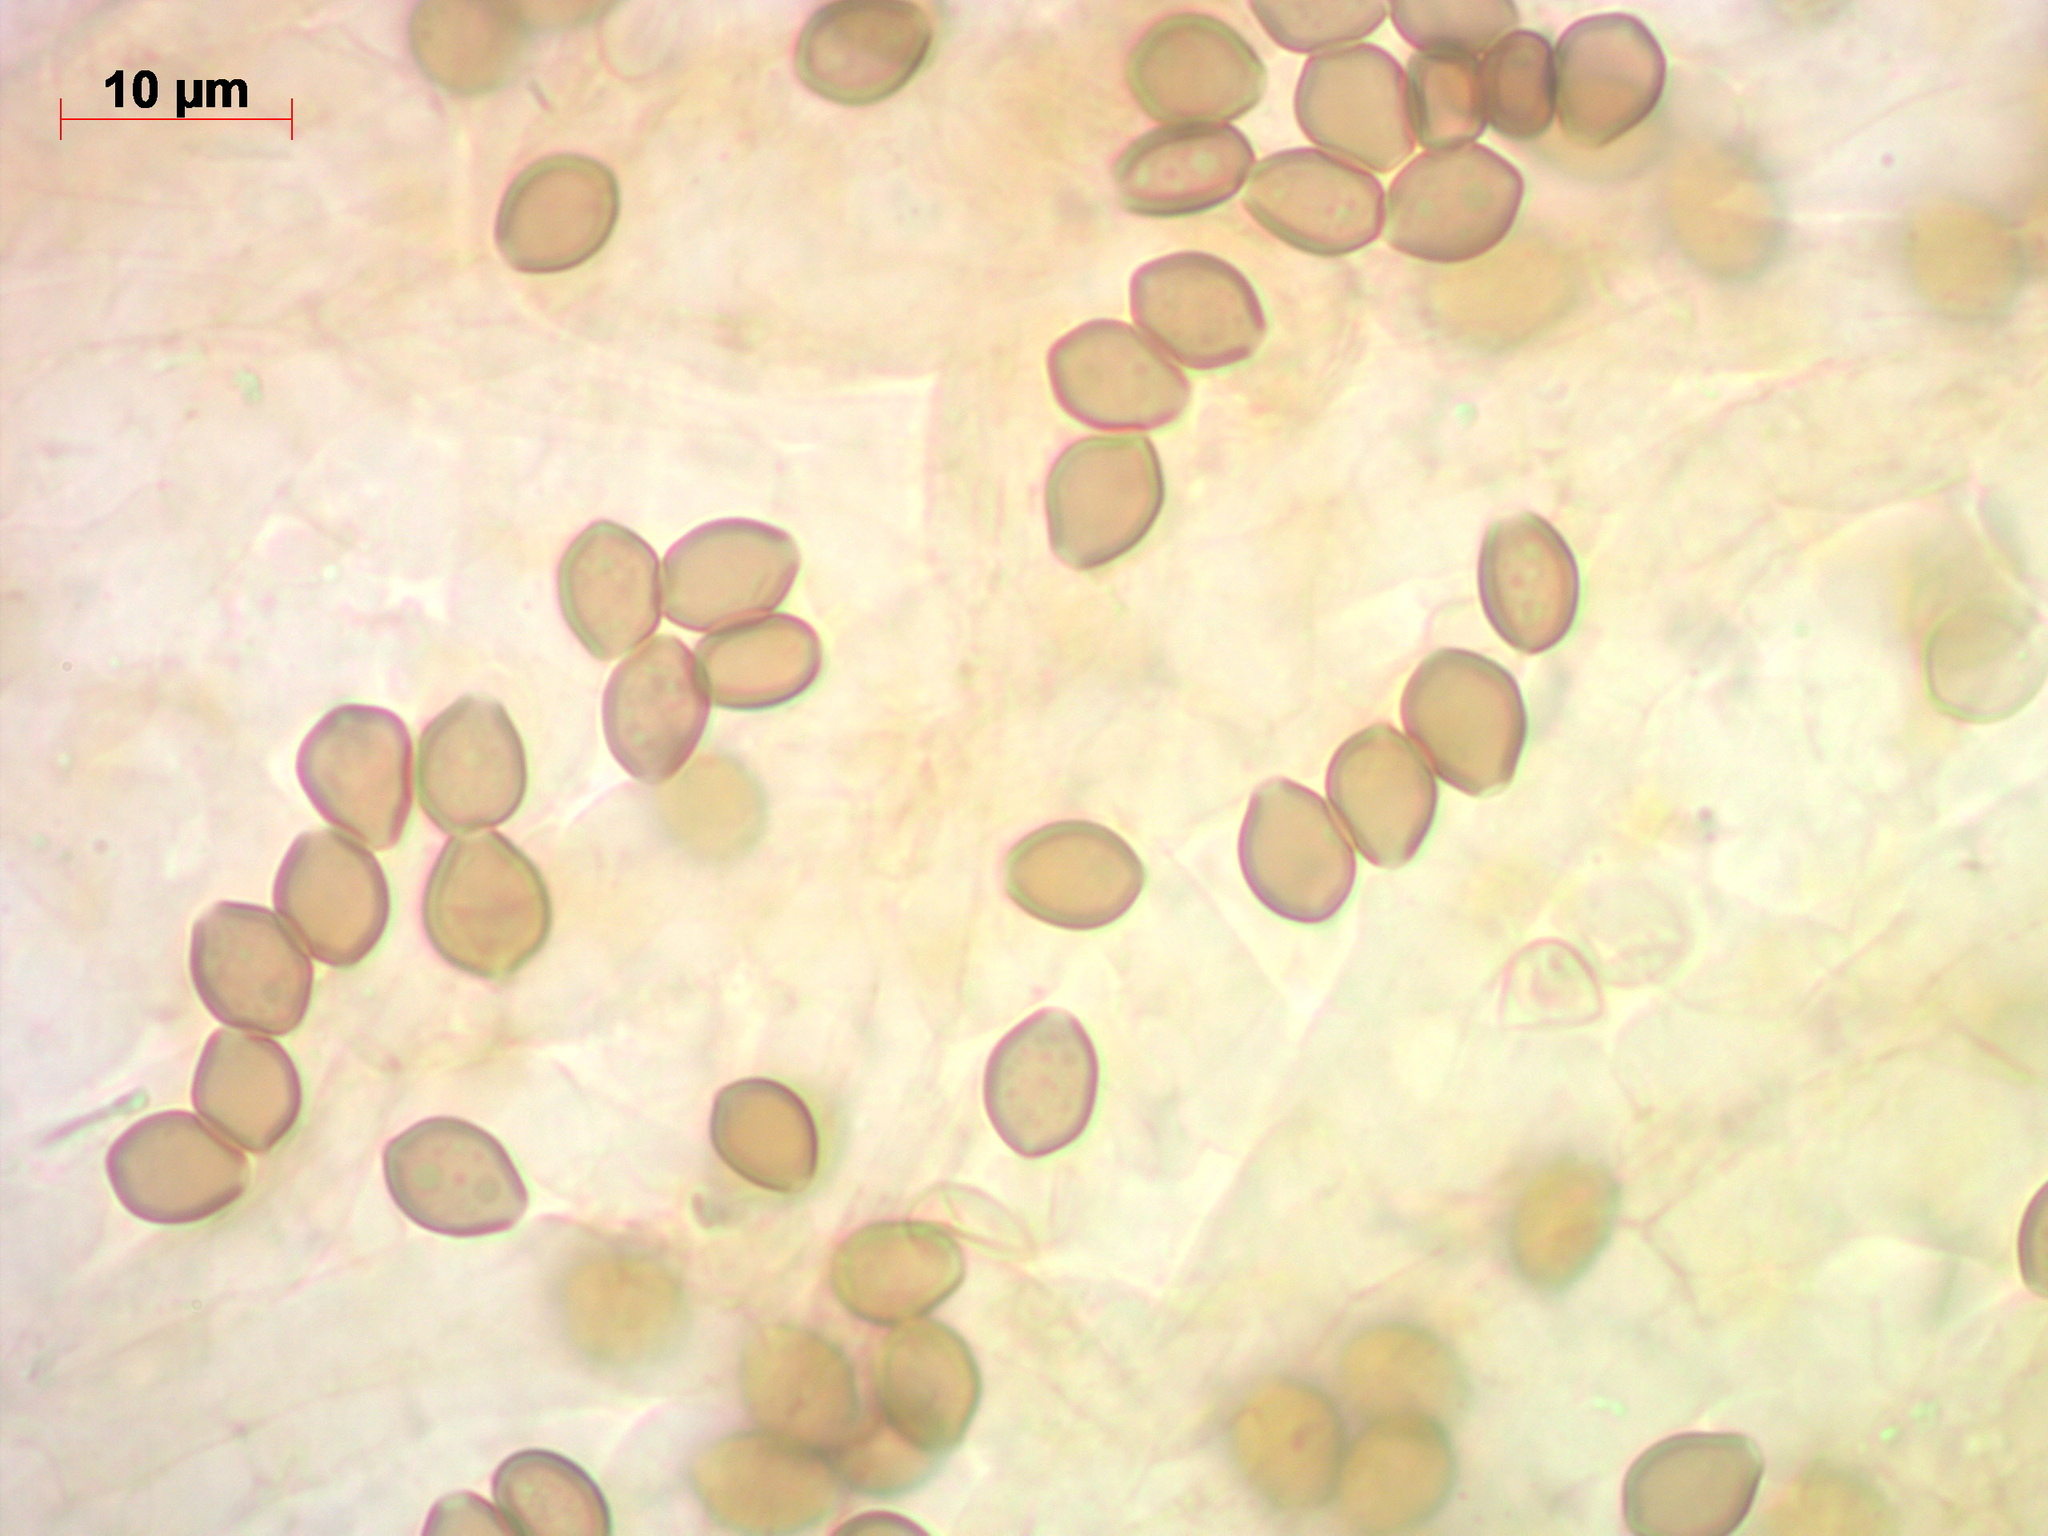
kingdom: Fungi
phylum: Basidiomycota
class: Agaricomycetes
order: Agaricales
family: Strophariaceae
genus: Deconica
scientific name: Deconica phyllogena
